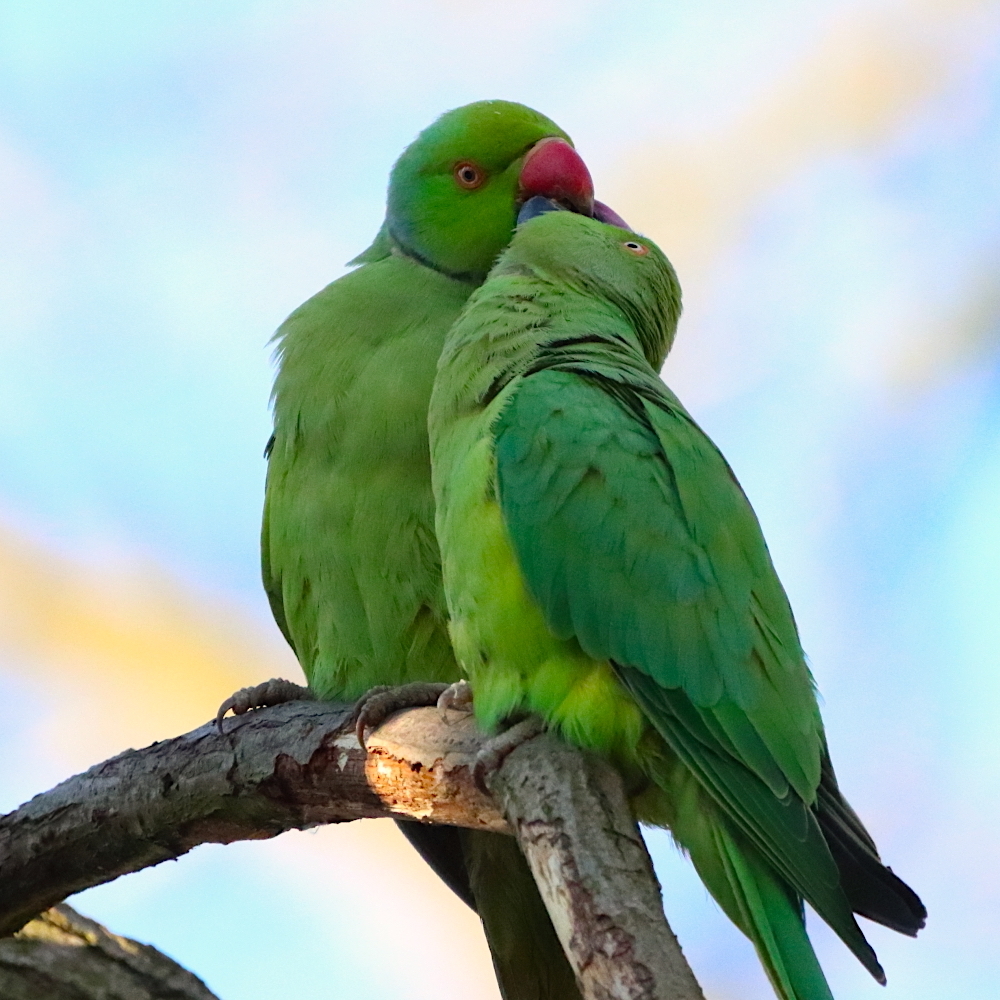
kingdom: Animalia
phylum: Chordata
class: Aves
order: Psittaciformes
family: Psittacidae
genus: Psittacula
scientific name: Psittacula krameri
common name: Rose-ringed parakeet
